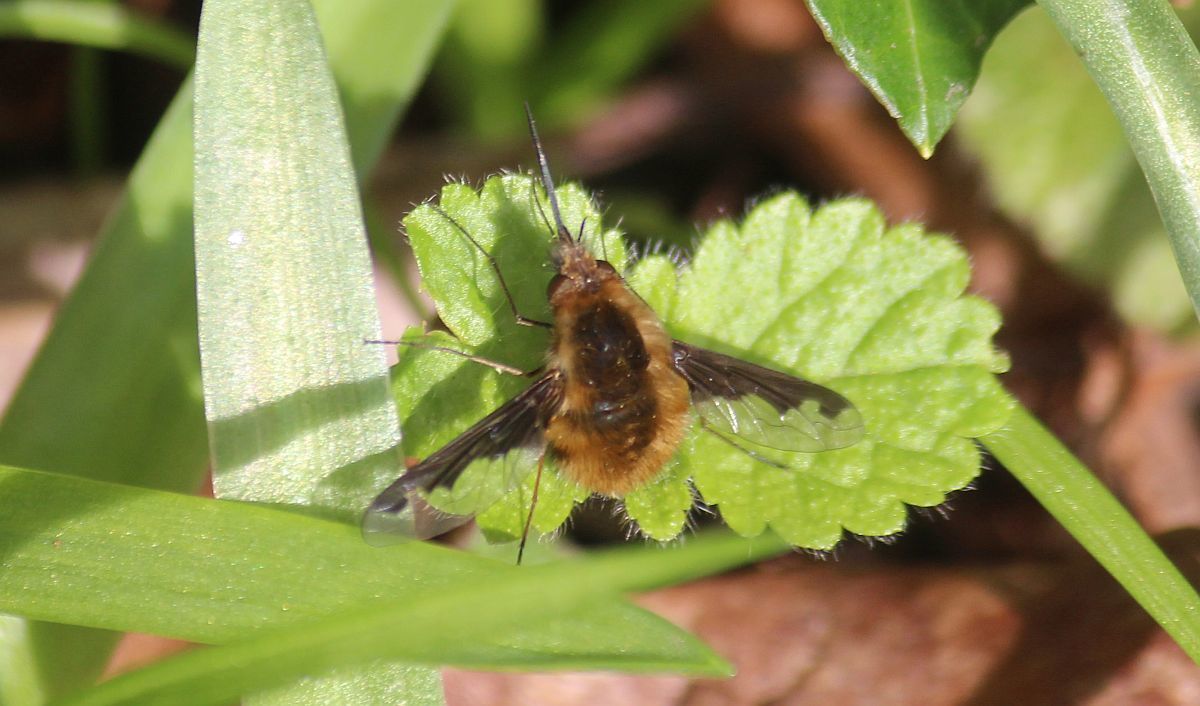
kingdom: Animalia
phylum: Arthropoda
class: Insecta
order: Diptera
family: Bombyliidae
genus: Bombylius
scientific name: Bombylius major
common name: Bee fly
